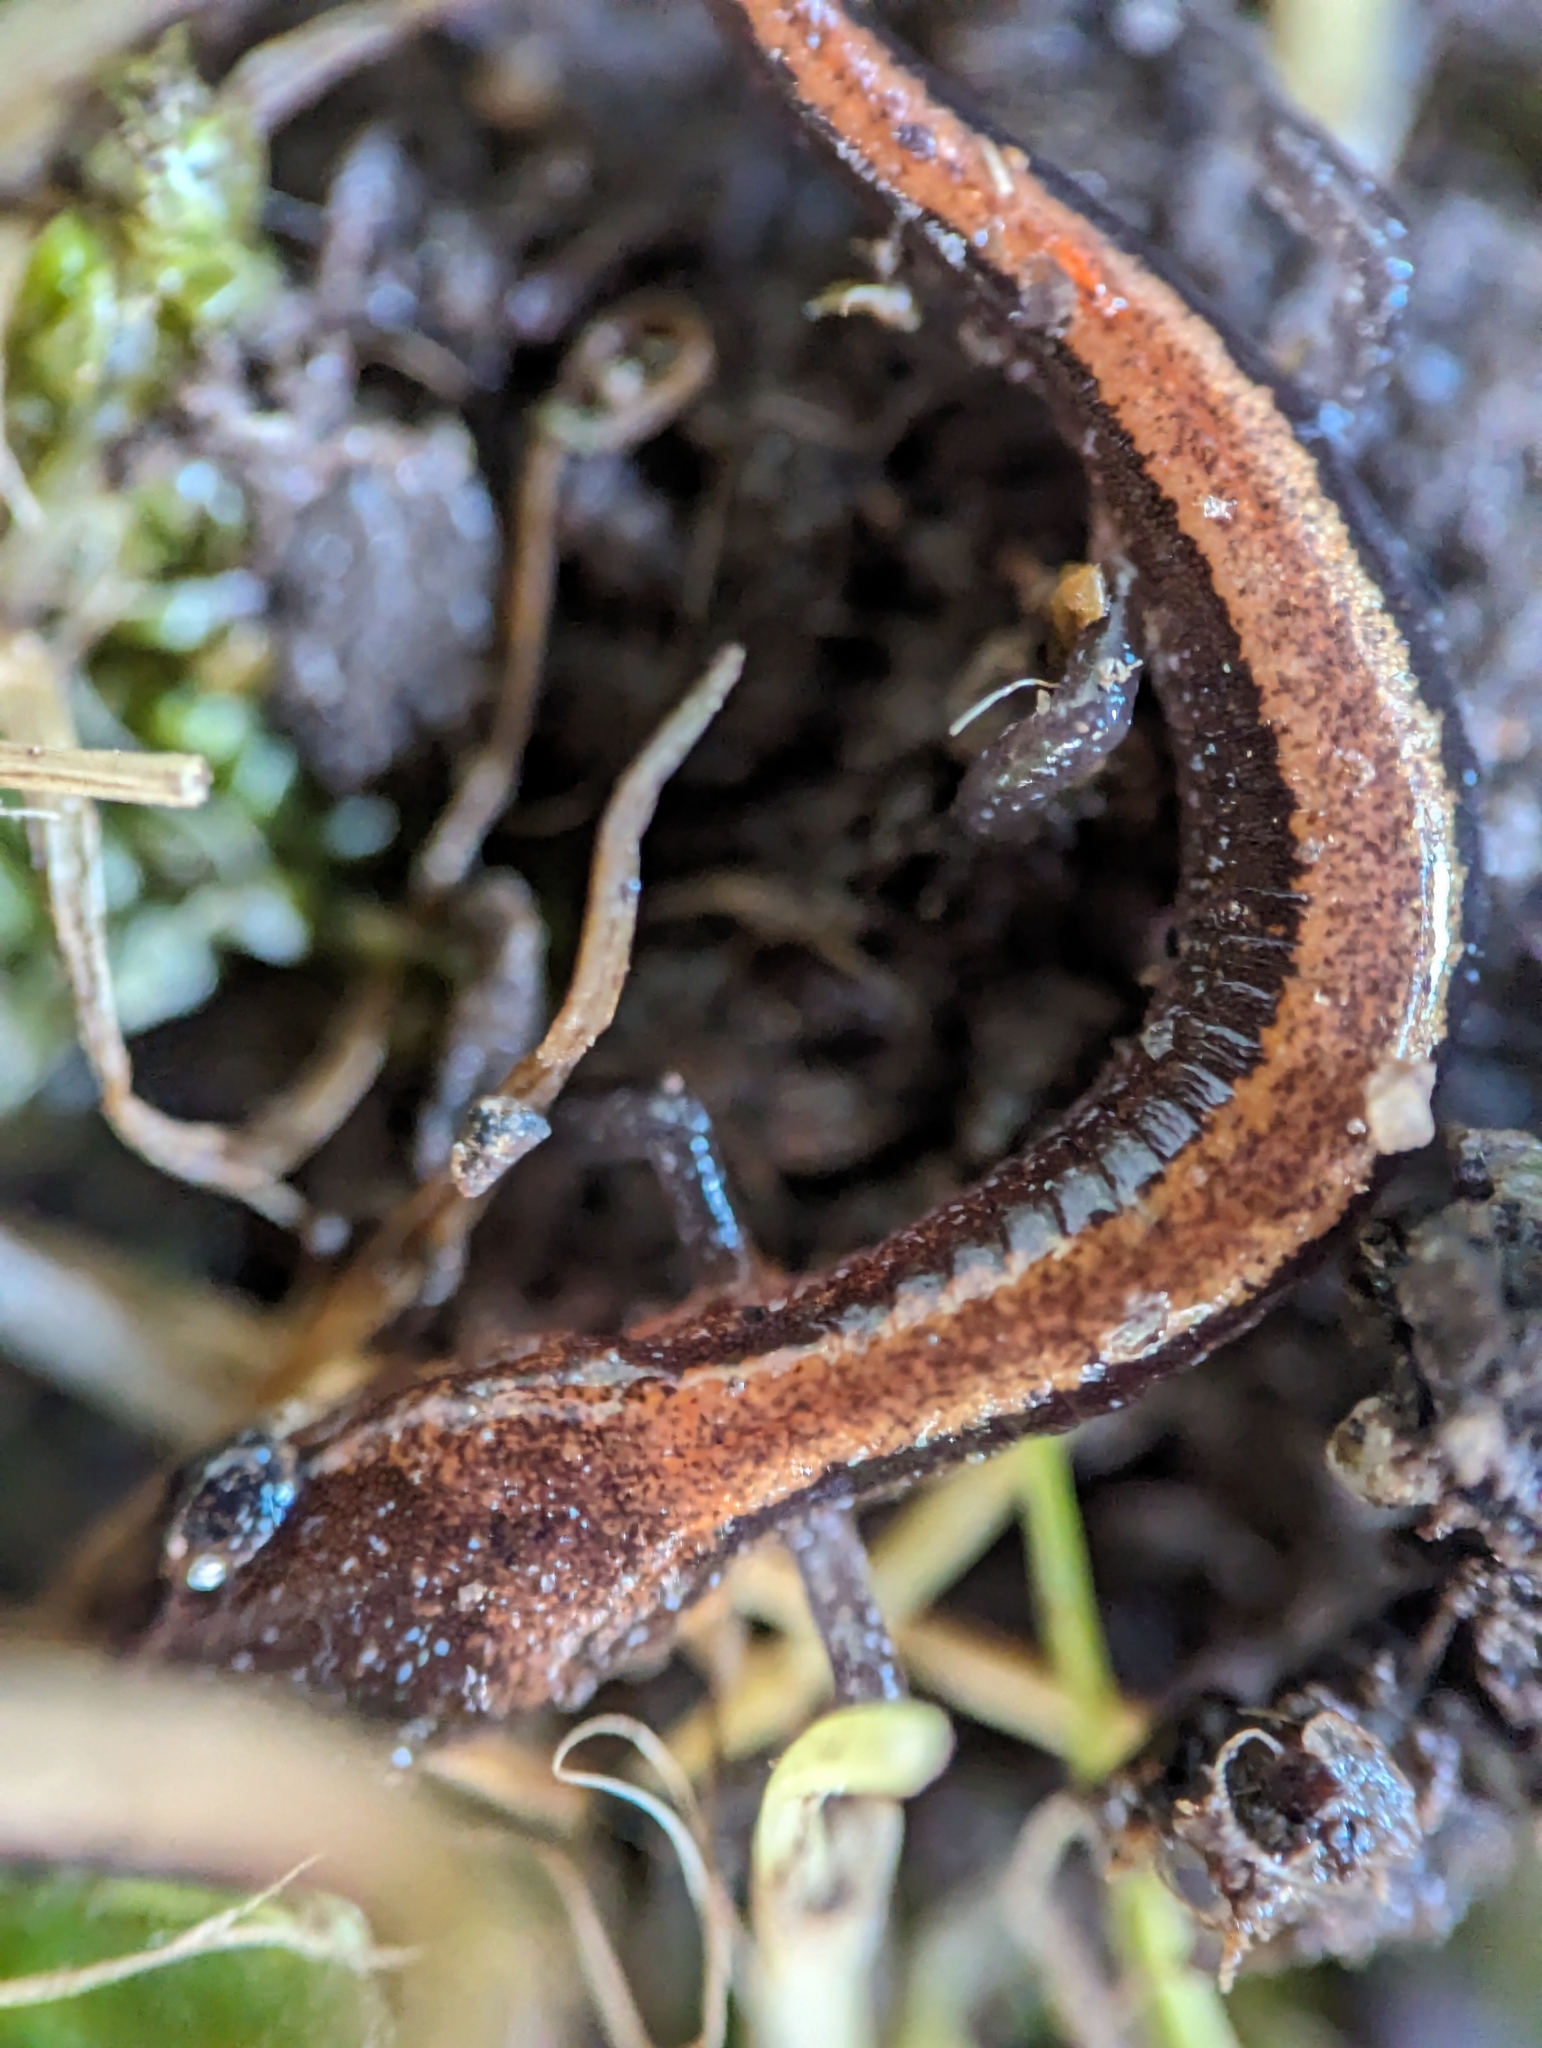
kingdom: Animalia
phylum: Chordata
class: Amphibia
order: Caudata
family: Plethodontidae
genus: Plethodon
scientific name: Plethodon cinereus
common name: Redback salamander
